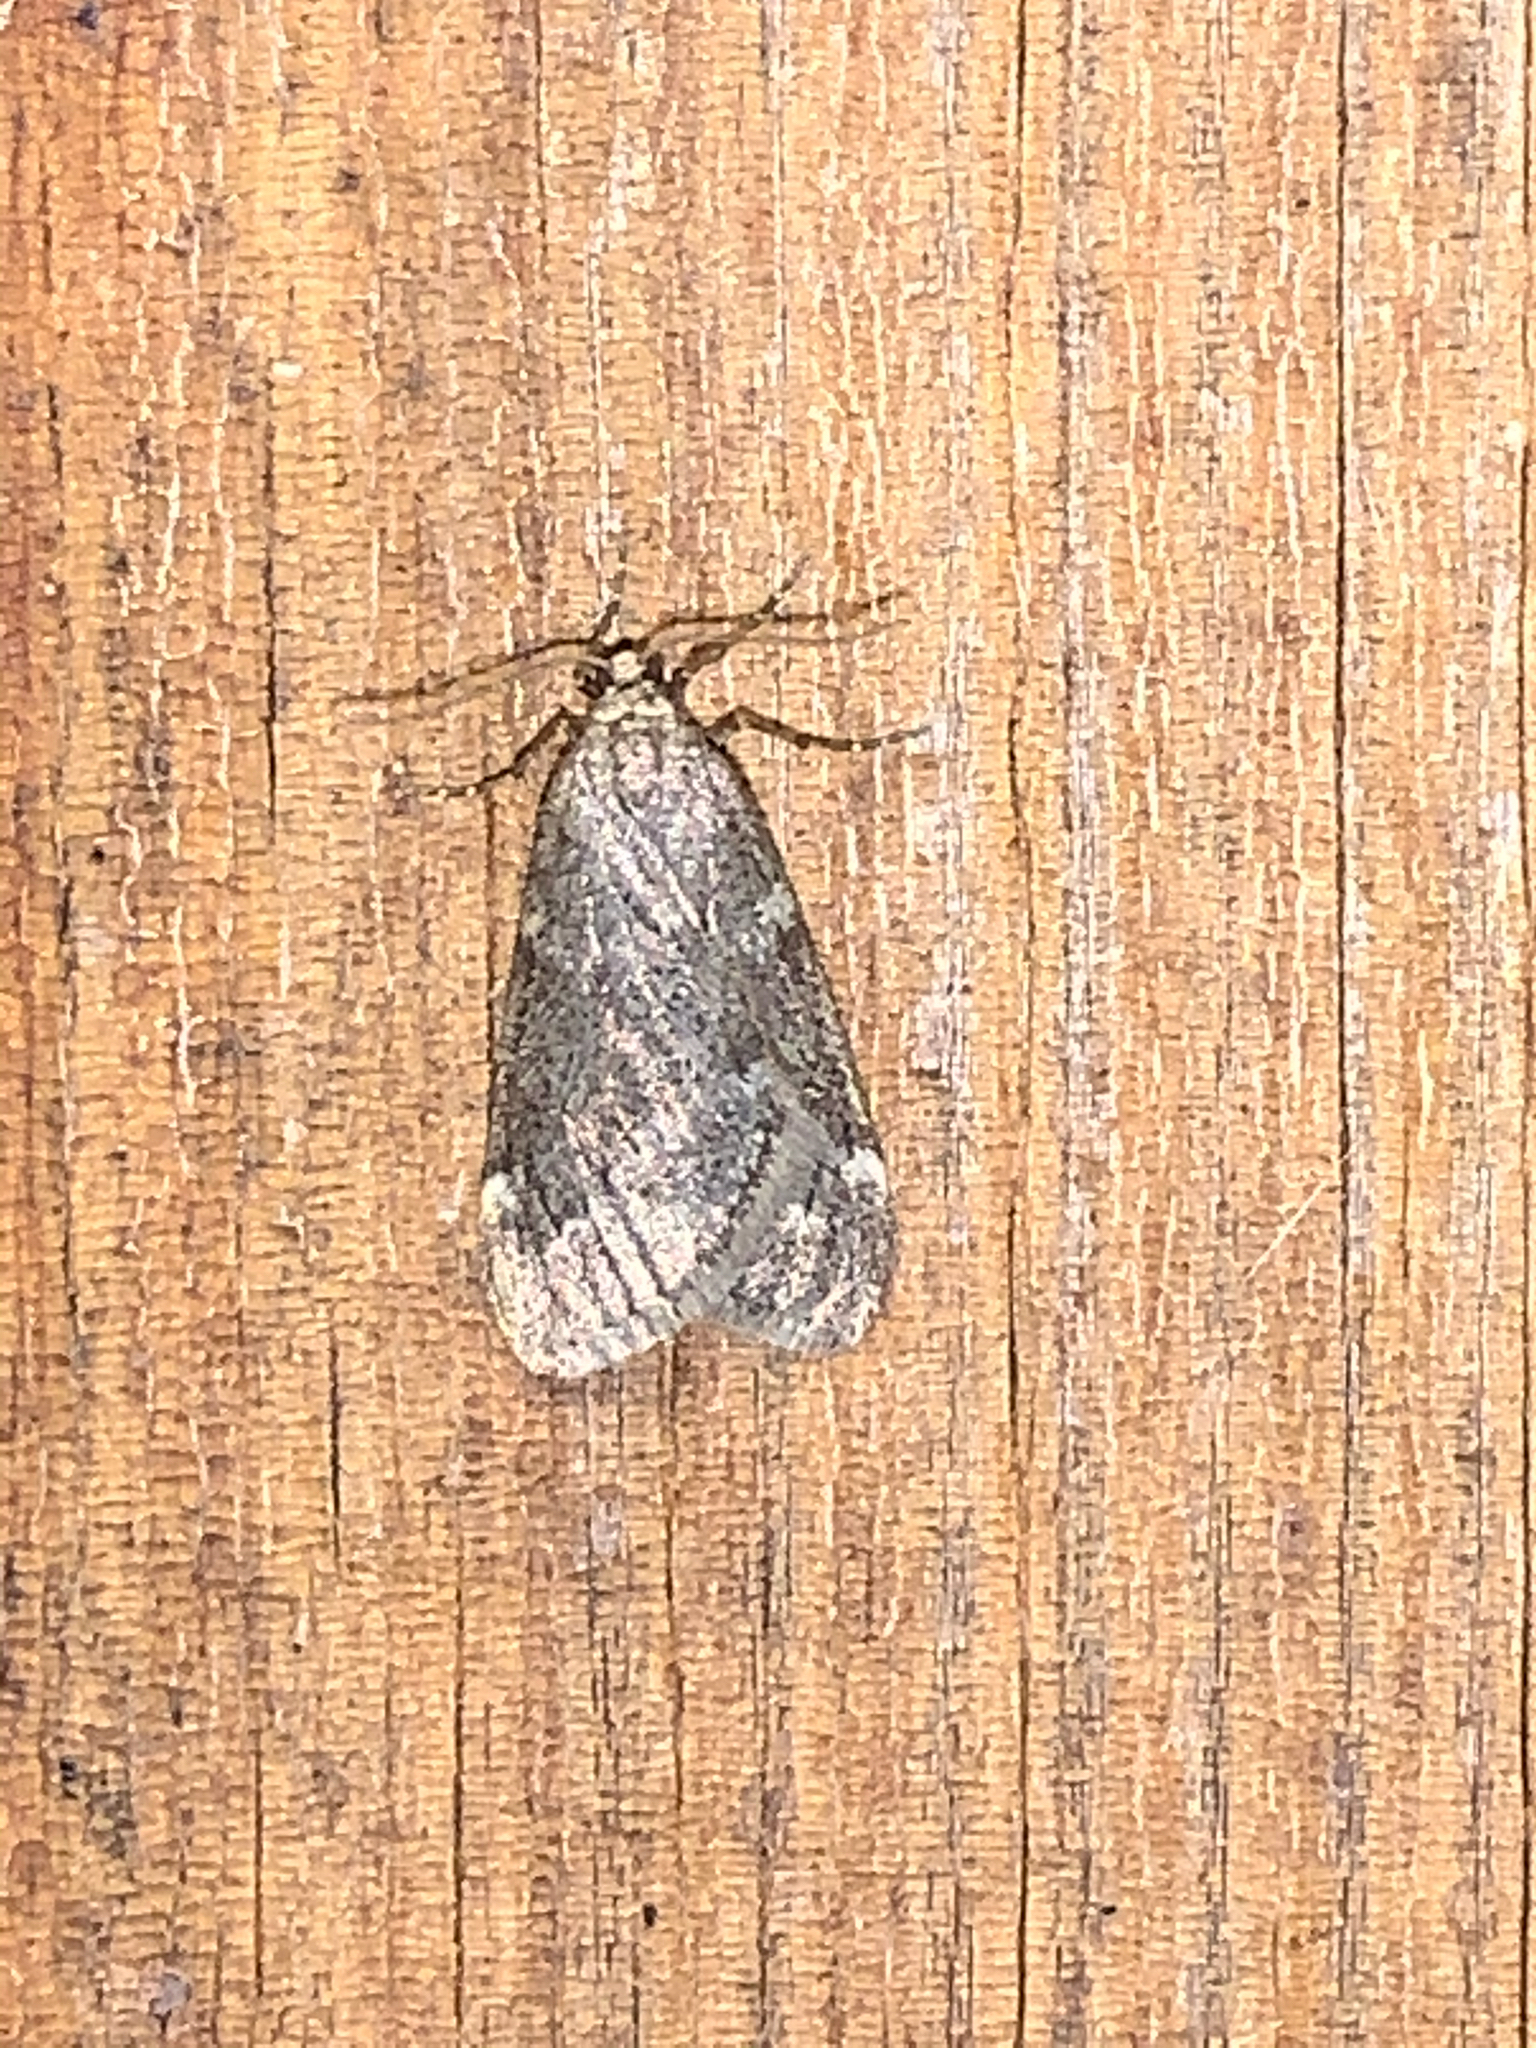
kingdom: Animalia
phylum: Arthropoda
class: Insecta
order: Lepidoptera
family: Geometridae
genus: Alsophila
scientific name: Alsophila pometaria
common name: Fall cankerworm
